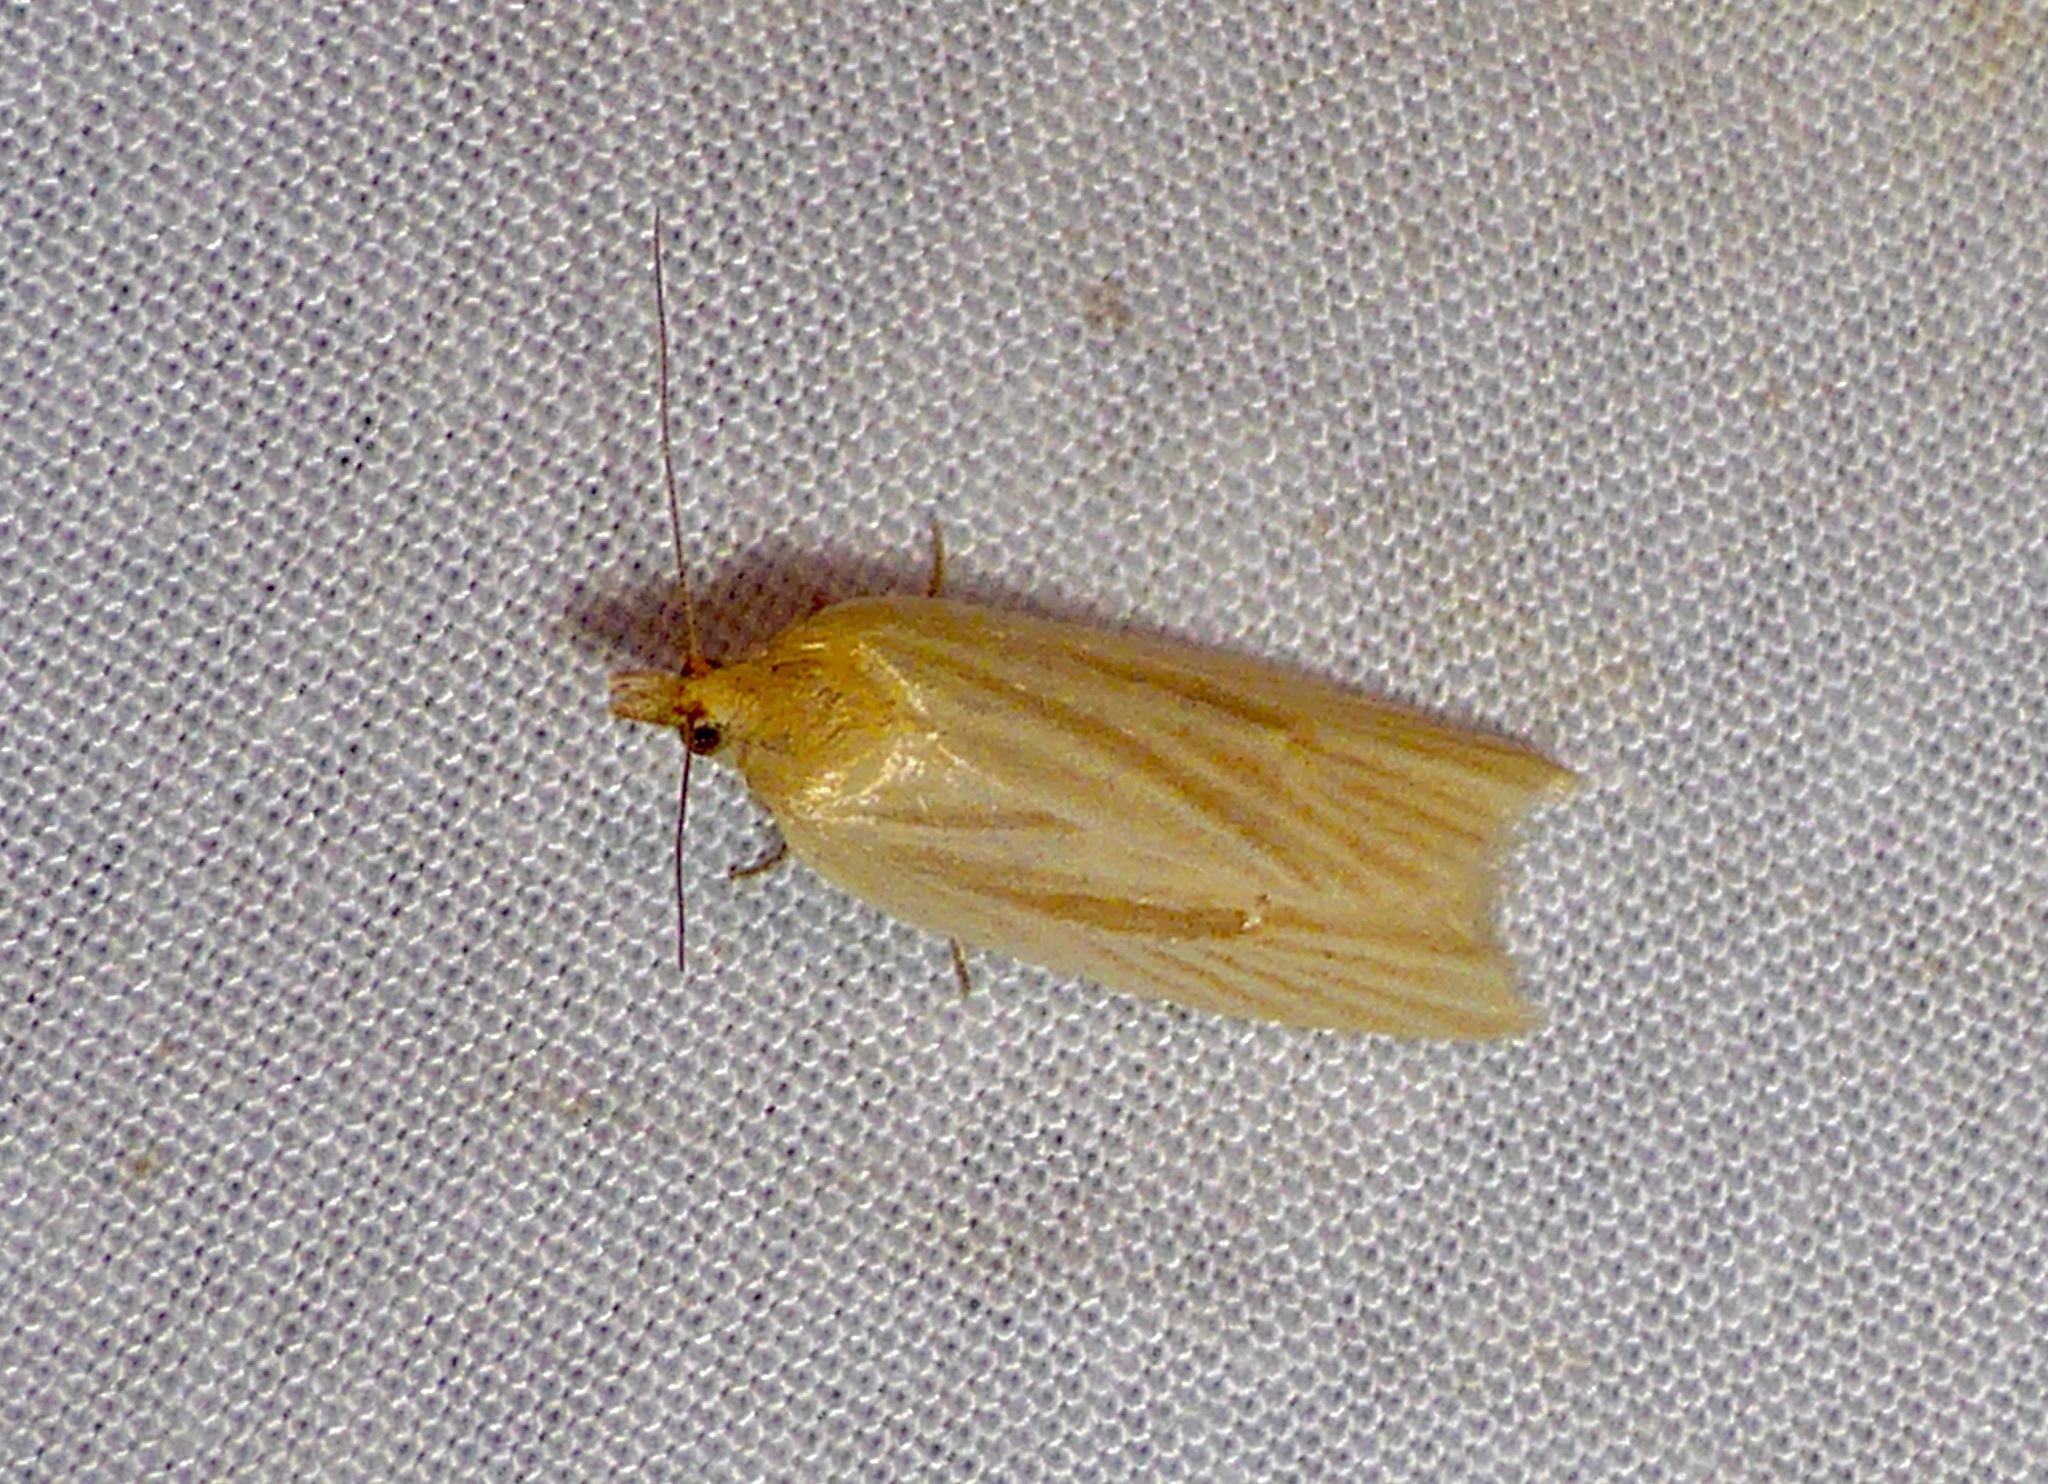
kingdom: Animalia
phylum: Arthropoda
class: Insecta
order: Lepidoptera
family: Tortricidae
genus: Clepsis
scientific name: Clepsis
